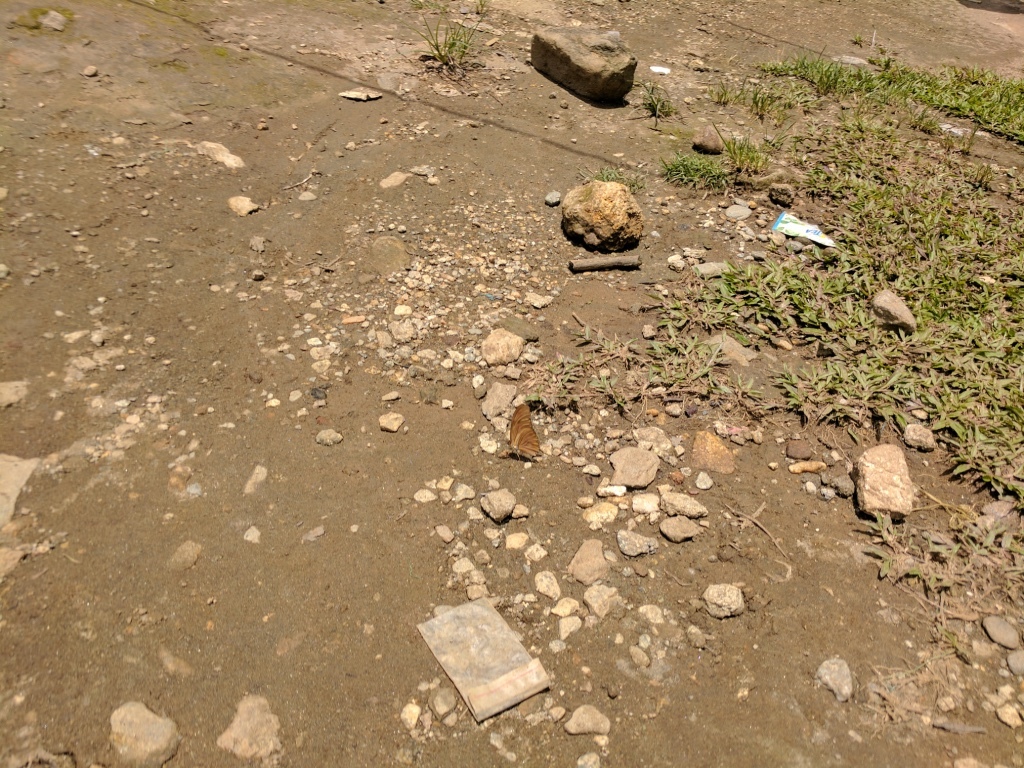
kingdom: Animalia
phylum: Arthropoda
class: Insecta
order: Lepidoptera
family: Nymphalidae
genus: Dryas
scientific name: Dryas iulia
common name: Flambeau
